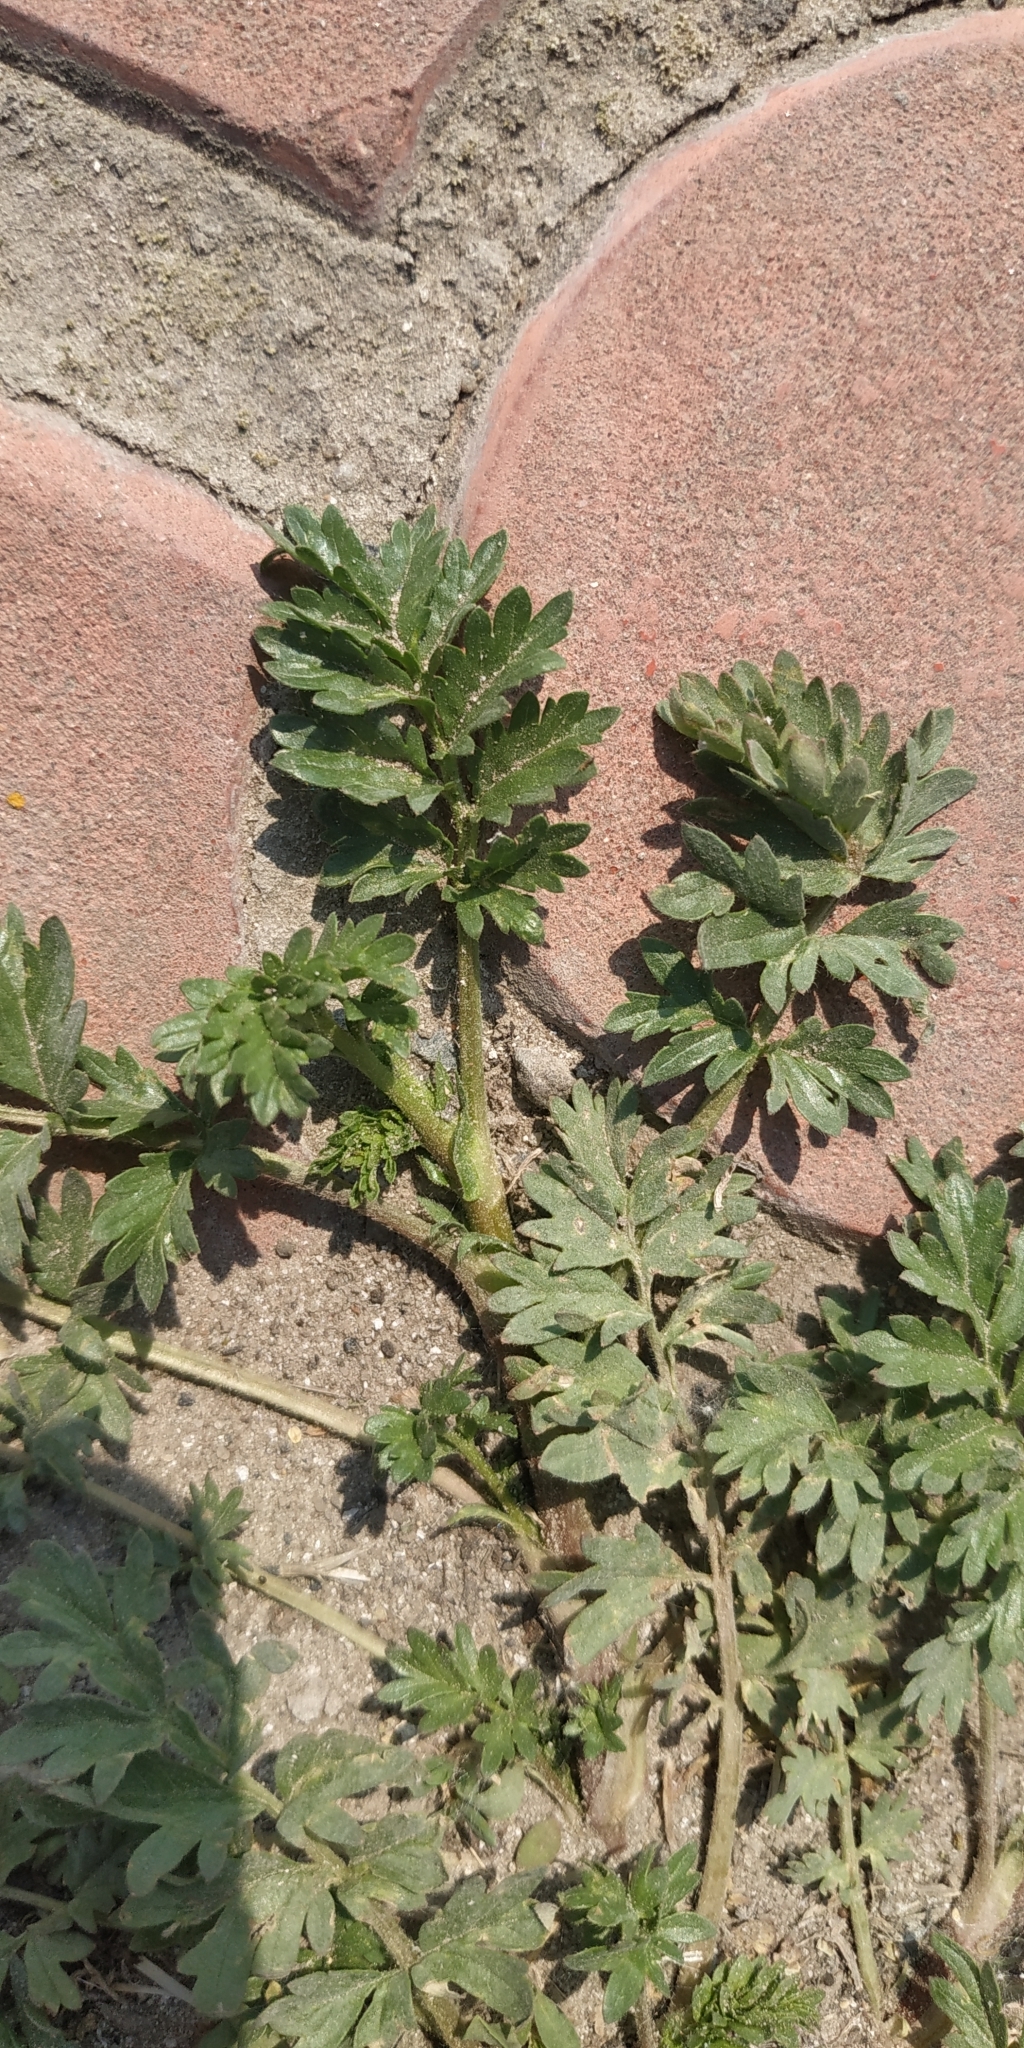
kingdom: Plantae
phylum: Tracheophyta
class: Magnoliopsida
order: Rosales
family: Rosaceae
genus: Potentilla
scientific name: Potentilla supina
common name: Prostrate cinquefoil
